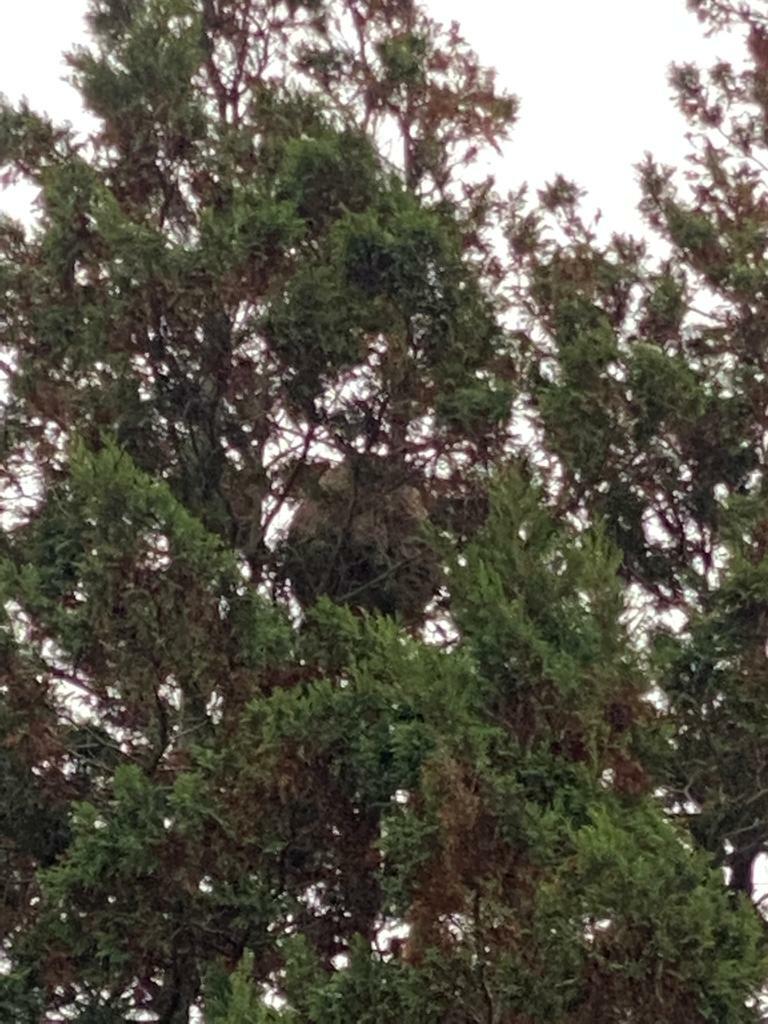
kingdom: Animalia
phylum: Arthropoda
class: Insecta
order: Hymenoptera
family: Vespidae
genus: Vespa
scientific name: Vespa velutina
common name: Asian hornet
